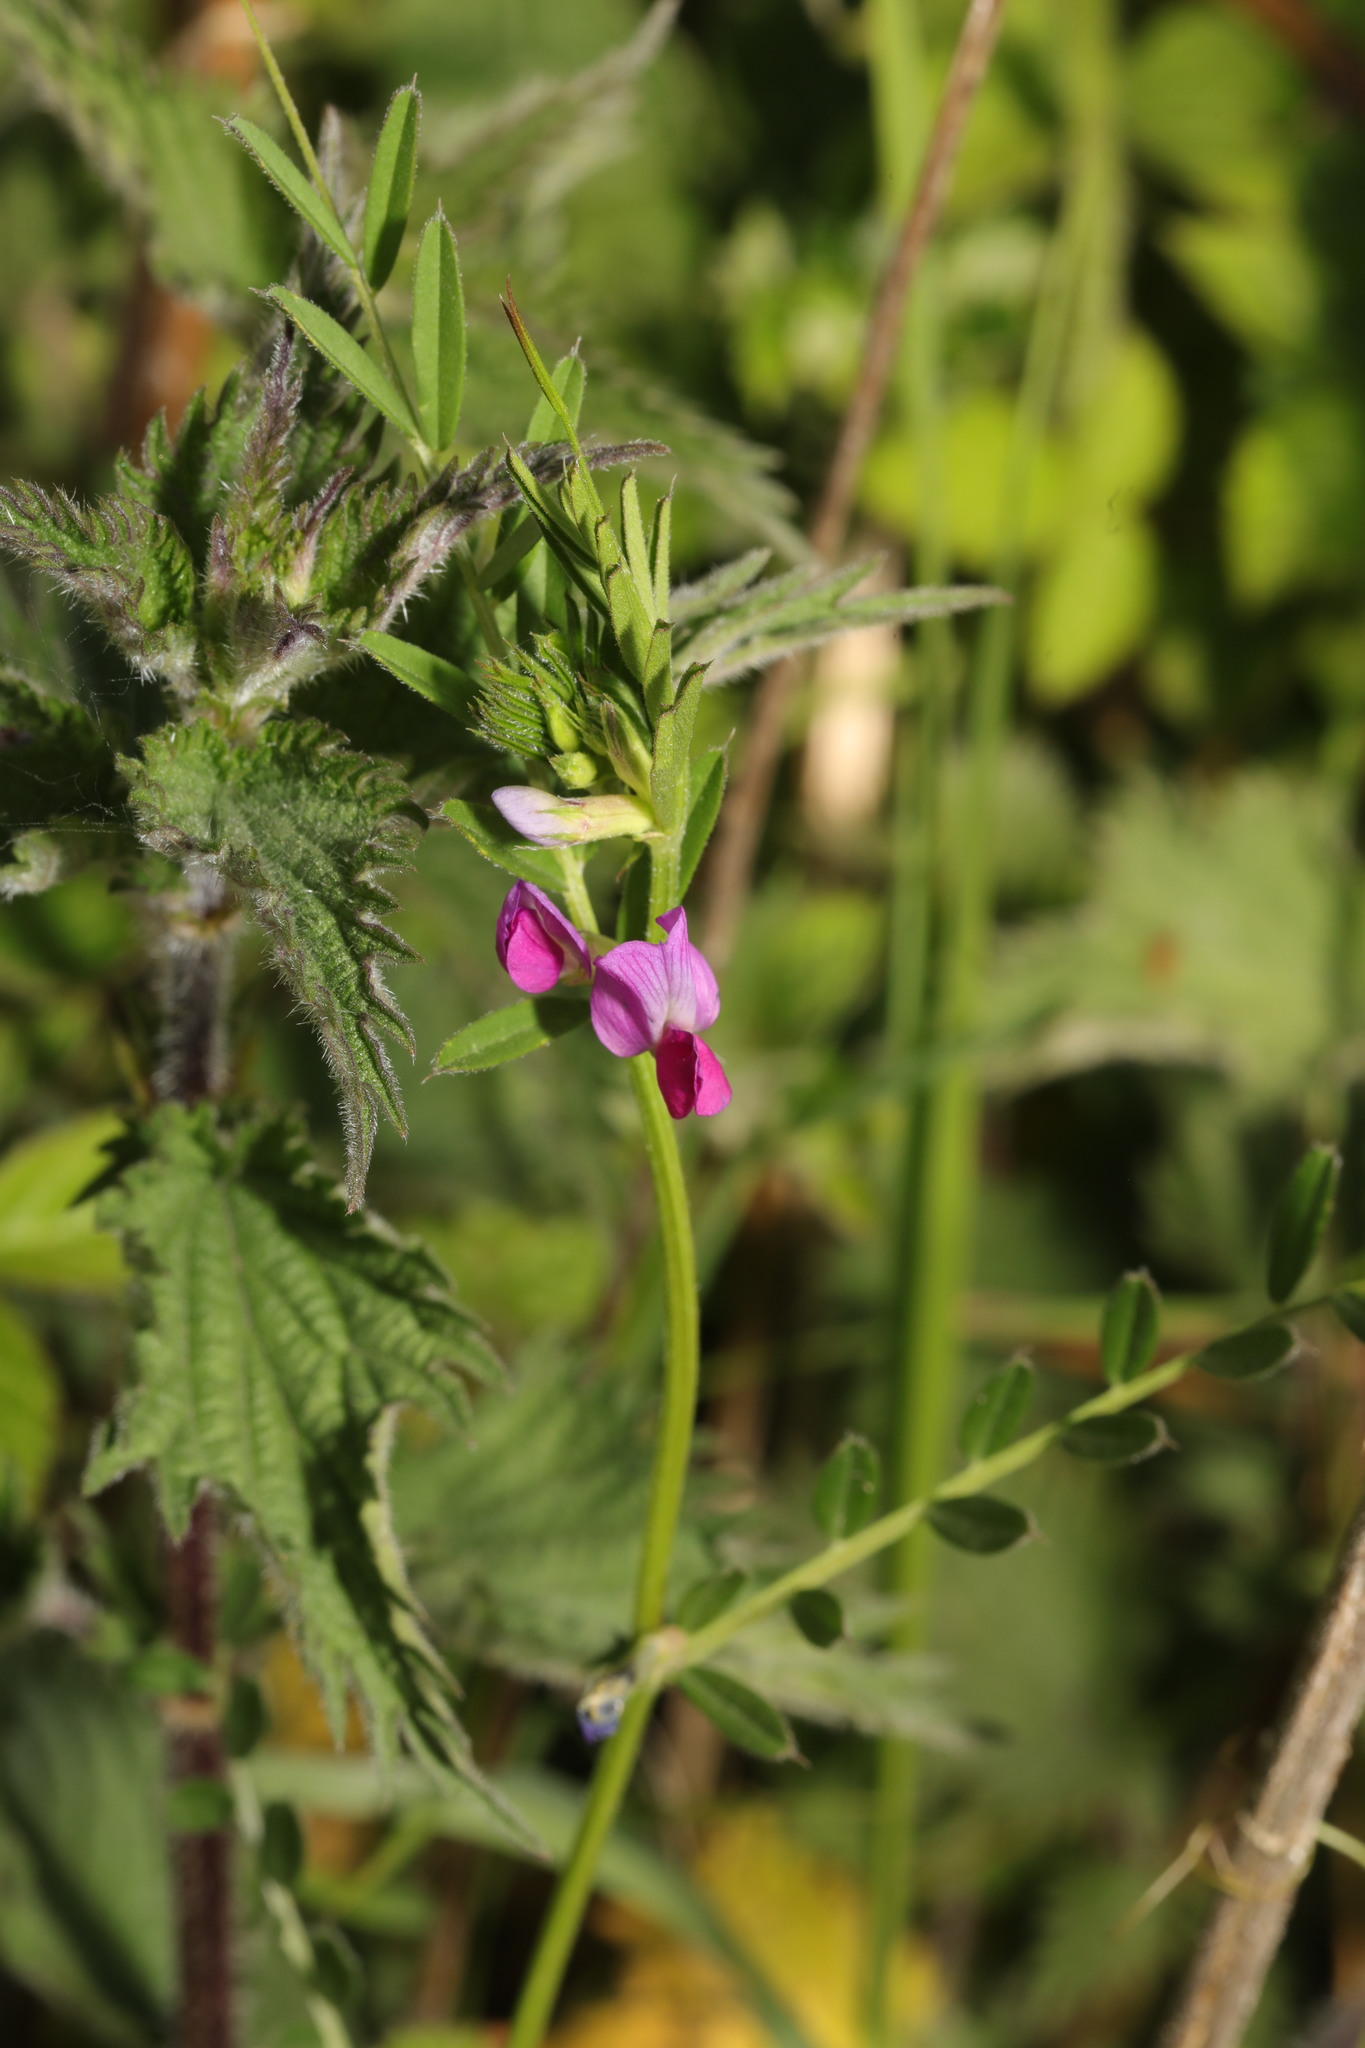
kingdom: Plantae
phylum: Tracheophyta
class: Magnoliopsida
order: Fabales
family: Fabaceae
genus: Vicia
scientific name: Vicia sativa
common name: Garden vetch
